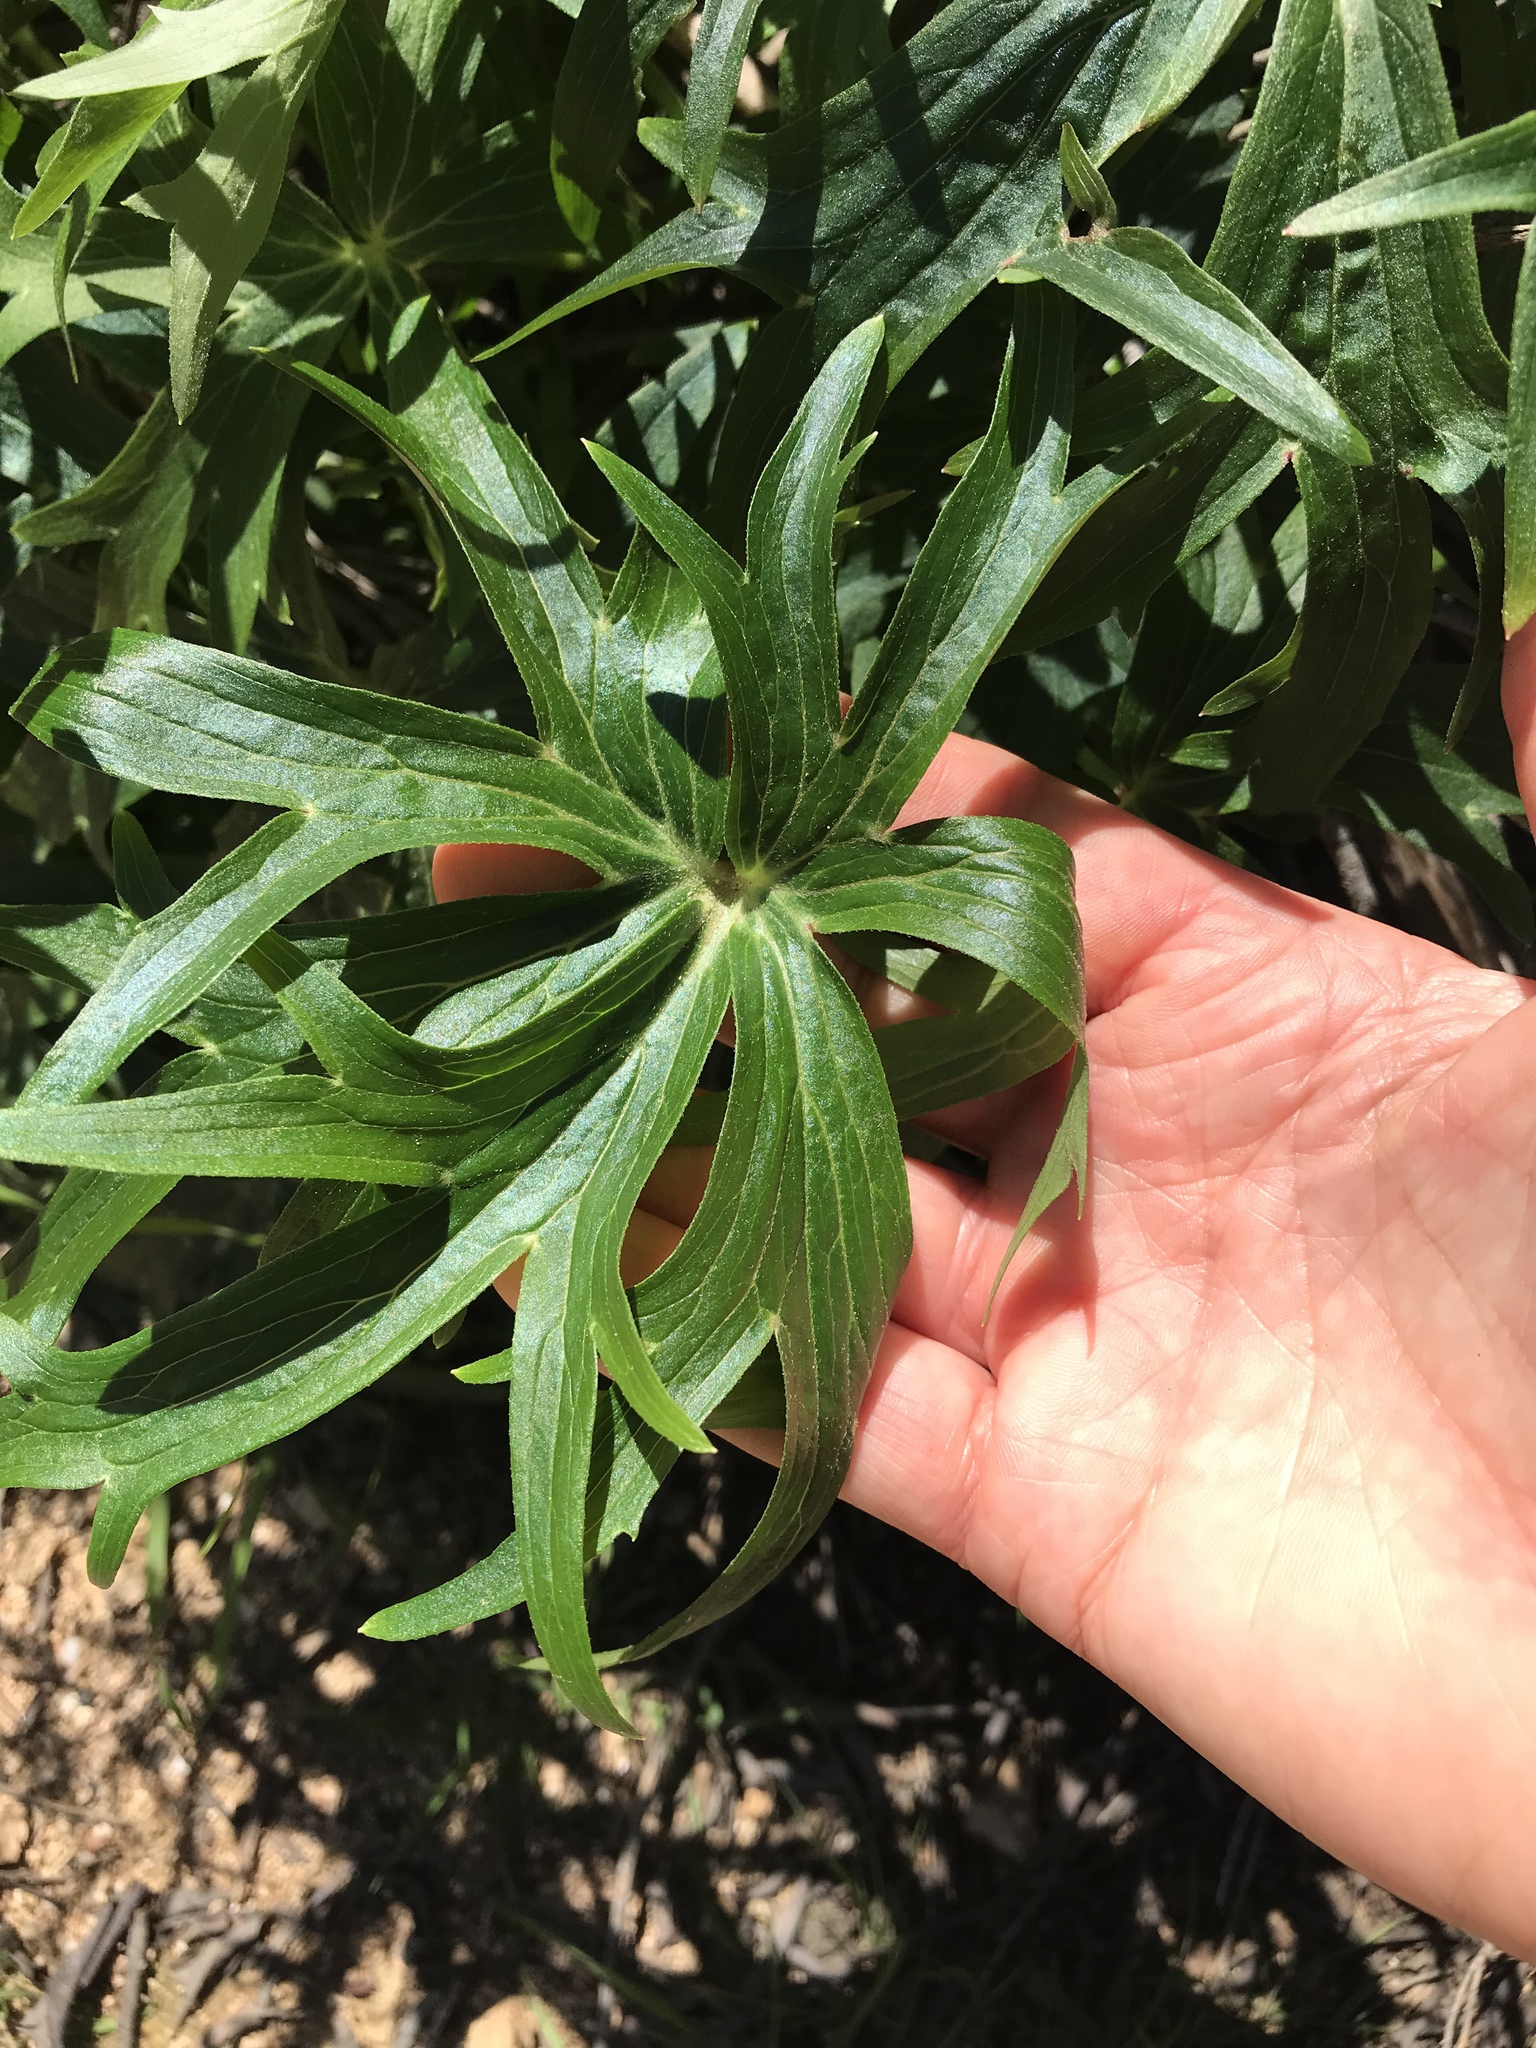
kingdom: Plantae
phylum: Tracheophyta
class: Magnoliopsida
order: Ranunculales
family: Ranunculaceae
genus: Delphinium
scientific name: Delphinium cardinale
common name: Scarlet larkspur
